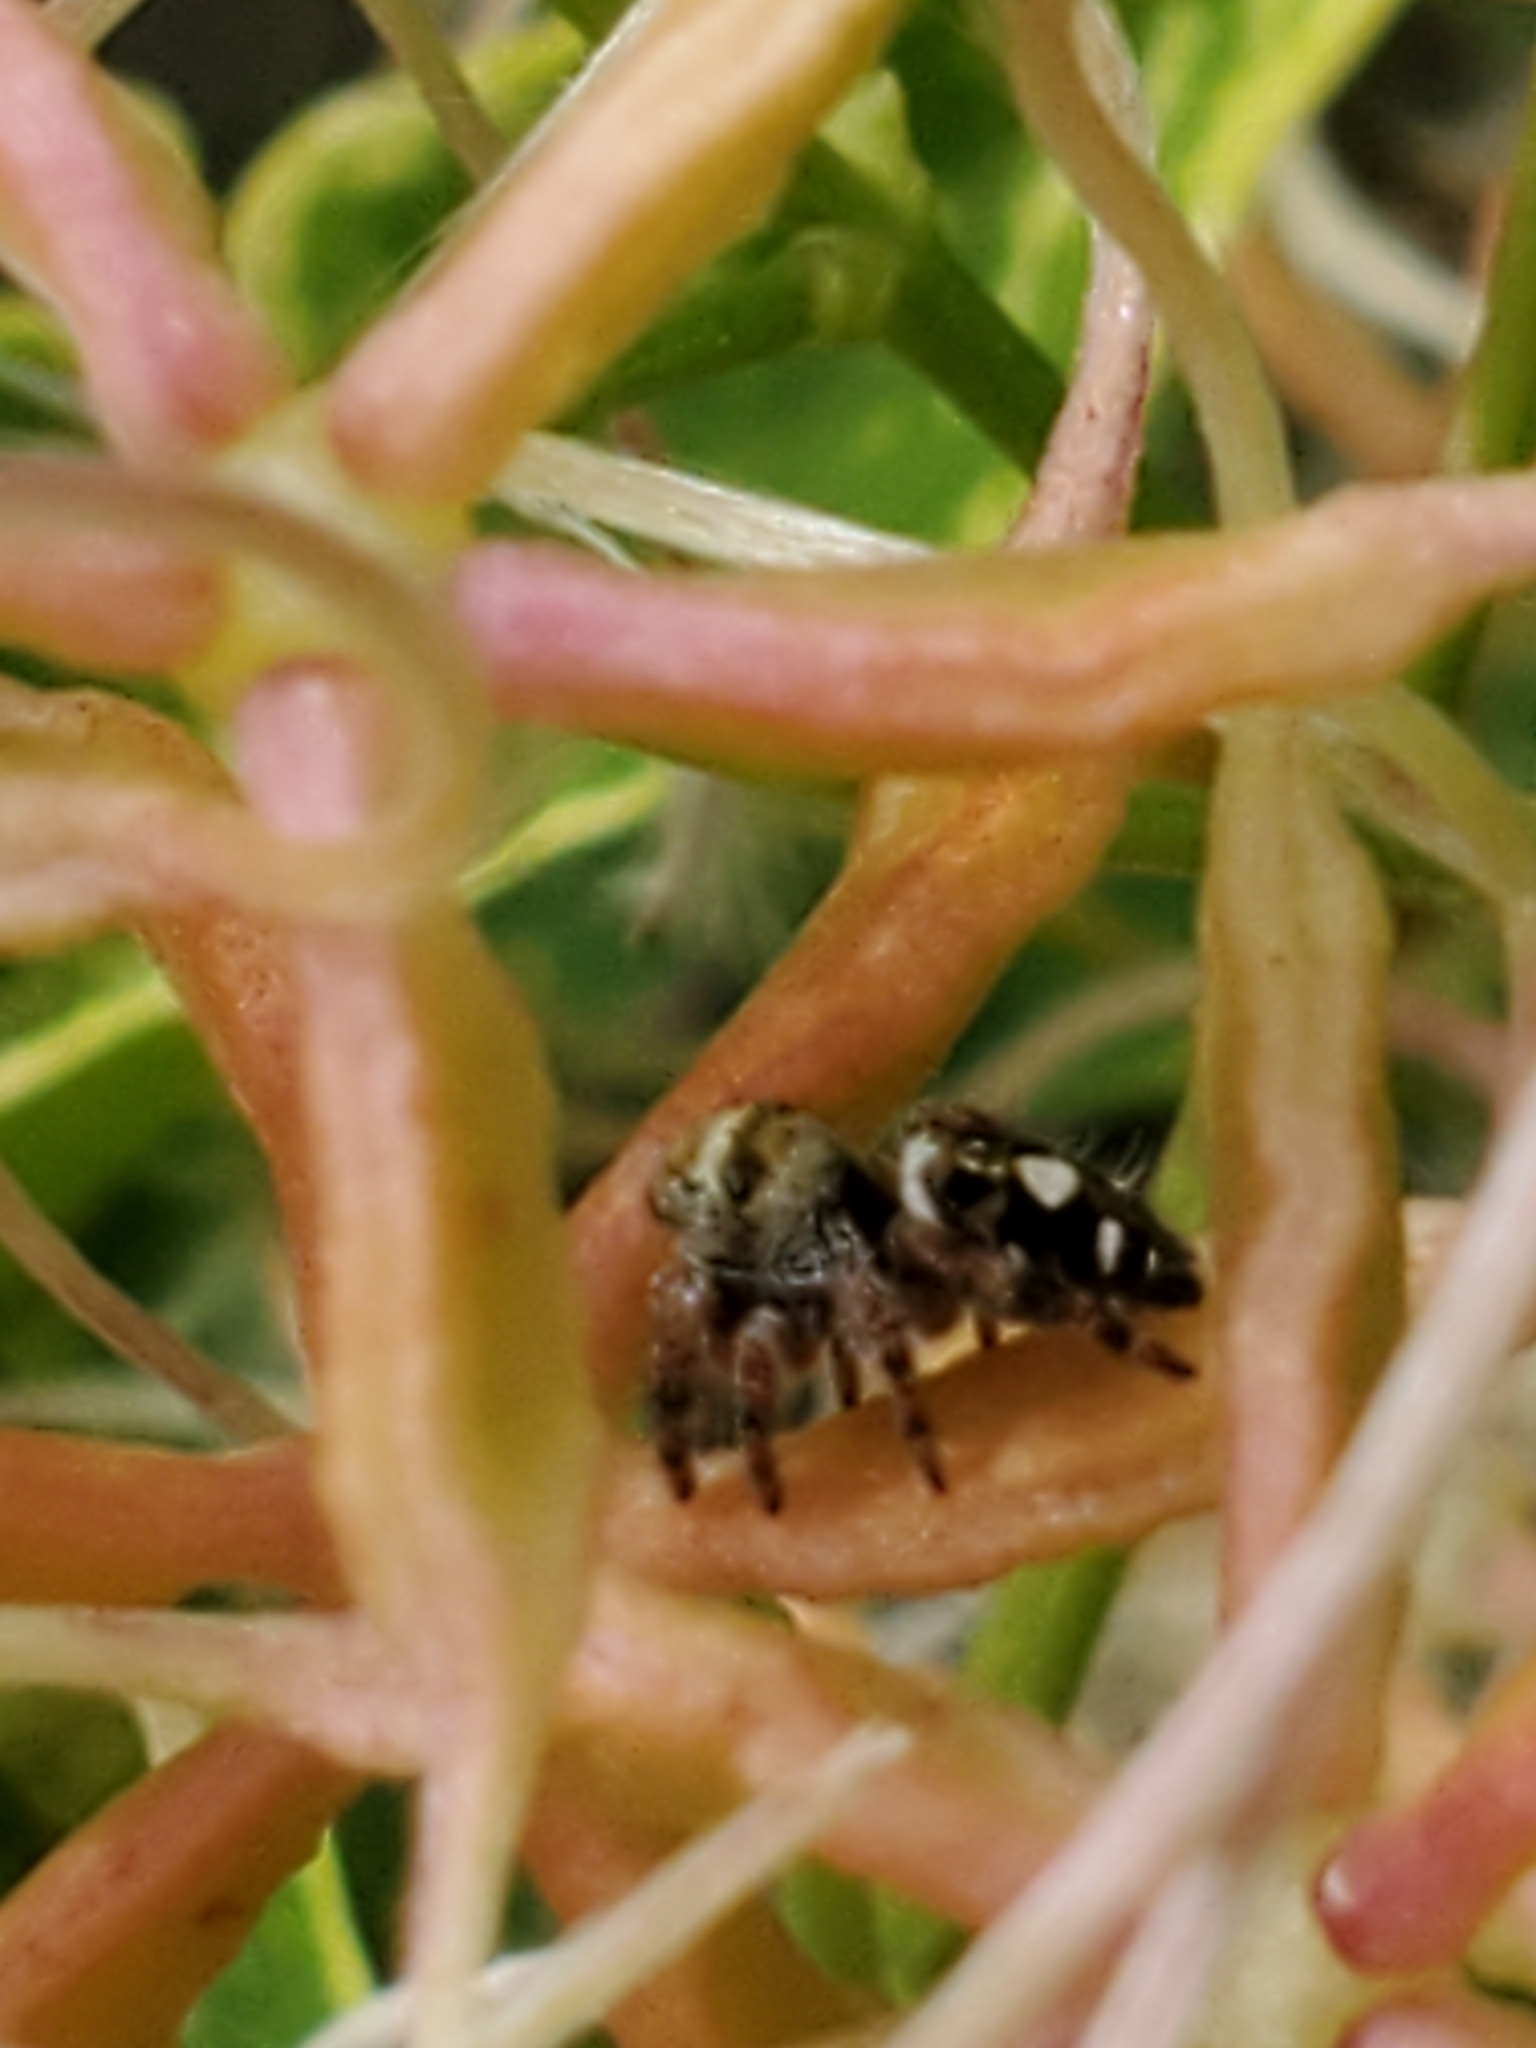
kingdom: Animalia
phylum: Arthropoda
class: Arachnida
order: Araneae
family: Salticidae
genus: Phidippus
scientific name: Phidippus audax
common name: Bold jumper
